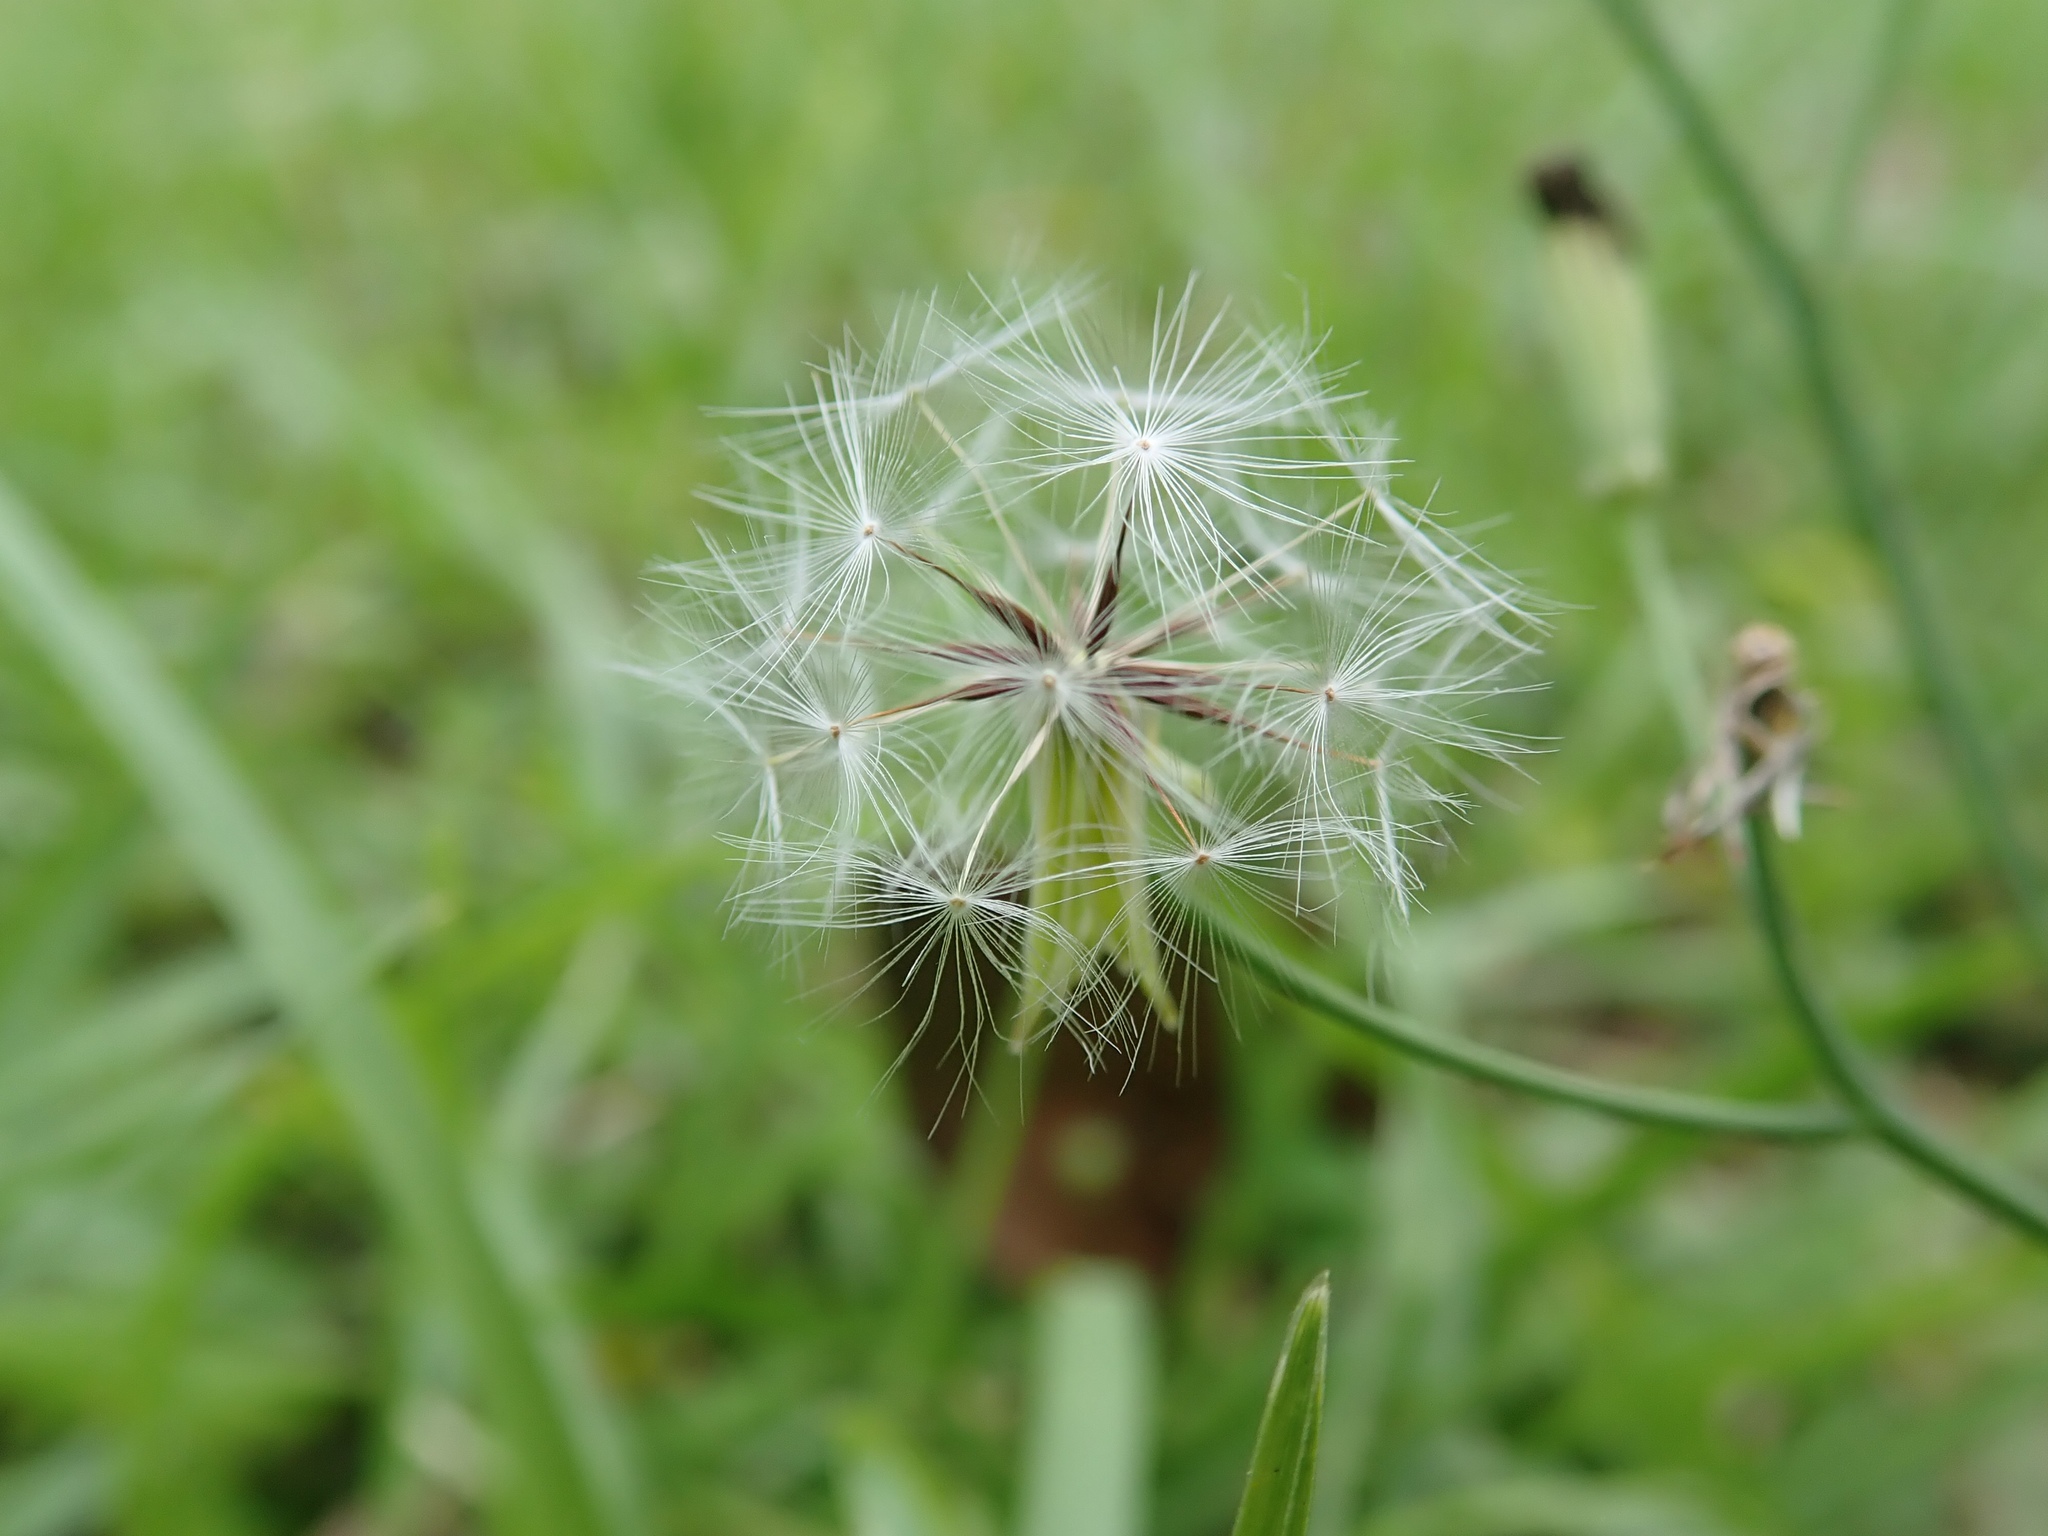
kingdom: Plantae
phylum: Tracheophyta
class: Magnoliopsida
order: Asterales
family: Asteraceae
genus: Ixeris
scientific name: Ixeris chinensis
